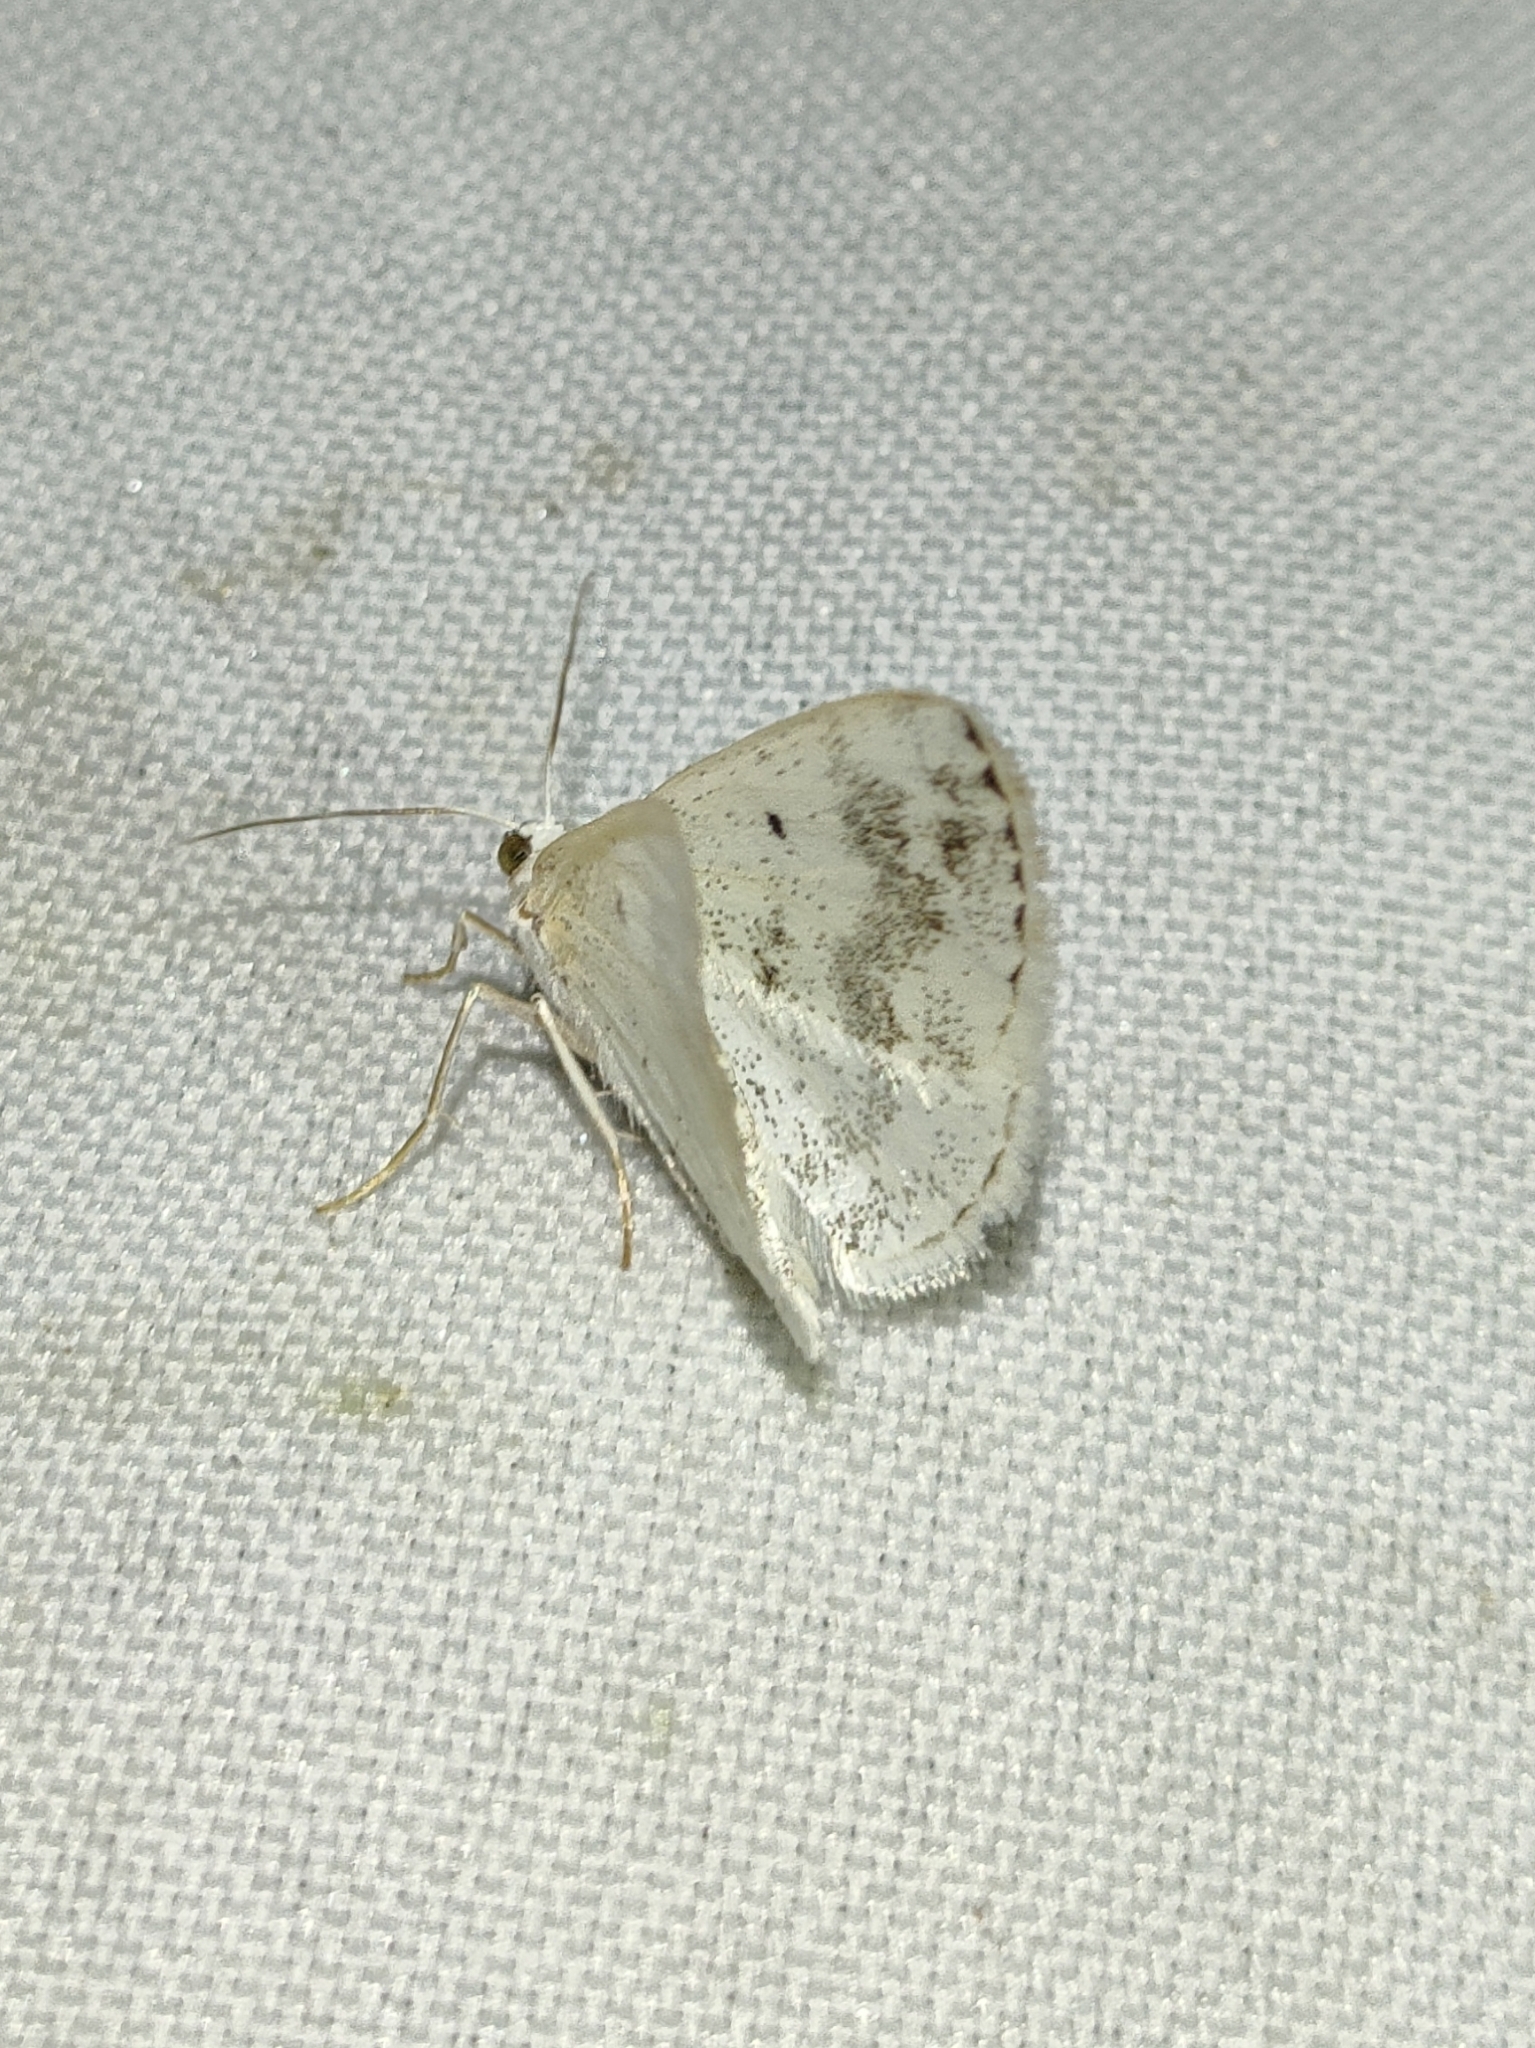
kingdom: Animalia
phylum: Arthropoda
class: Insecta
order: Lepidoptera
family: Geometridae
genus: Lomographa
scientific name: Lomographa temerata
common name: Clouded silver
